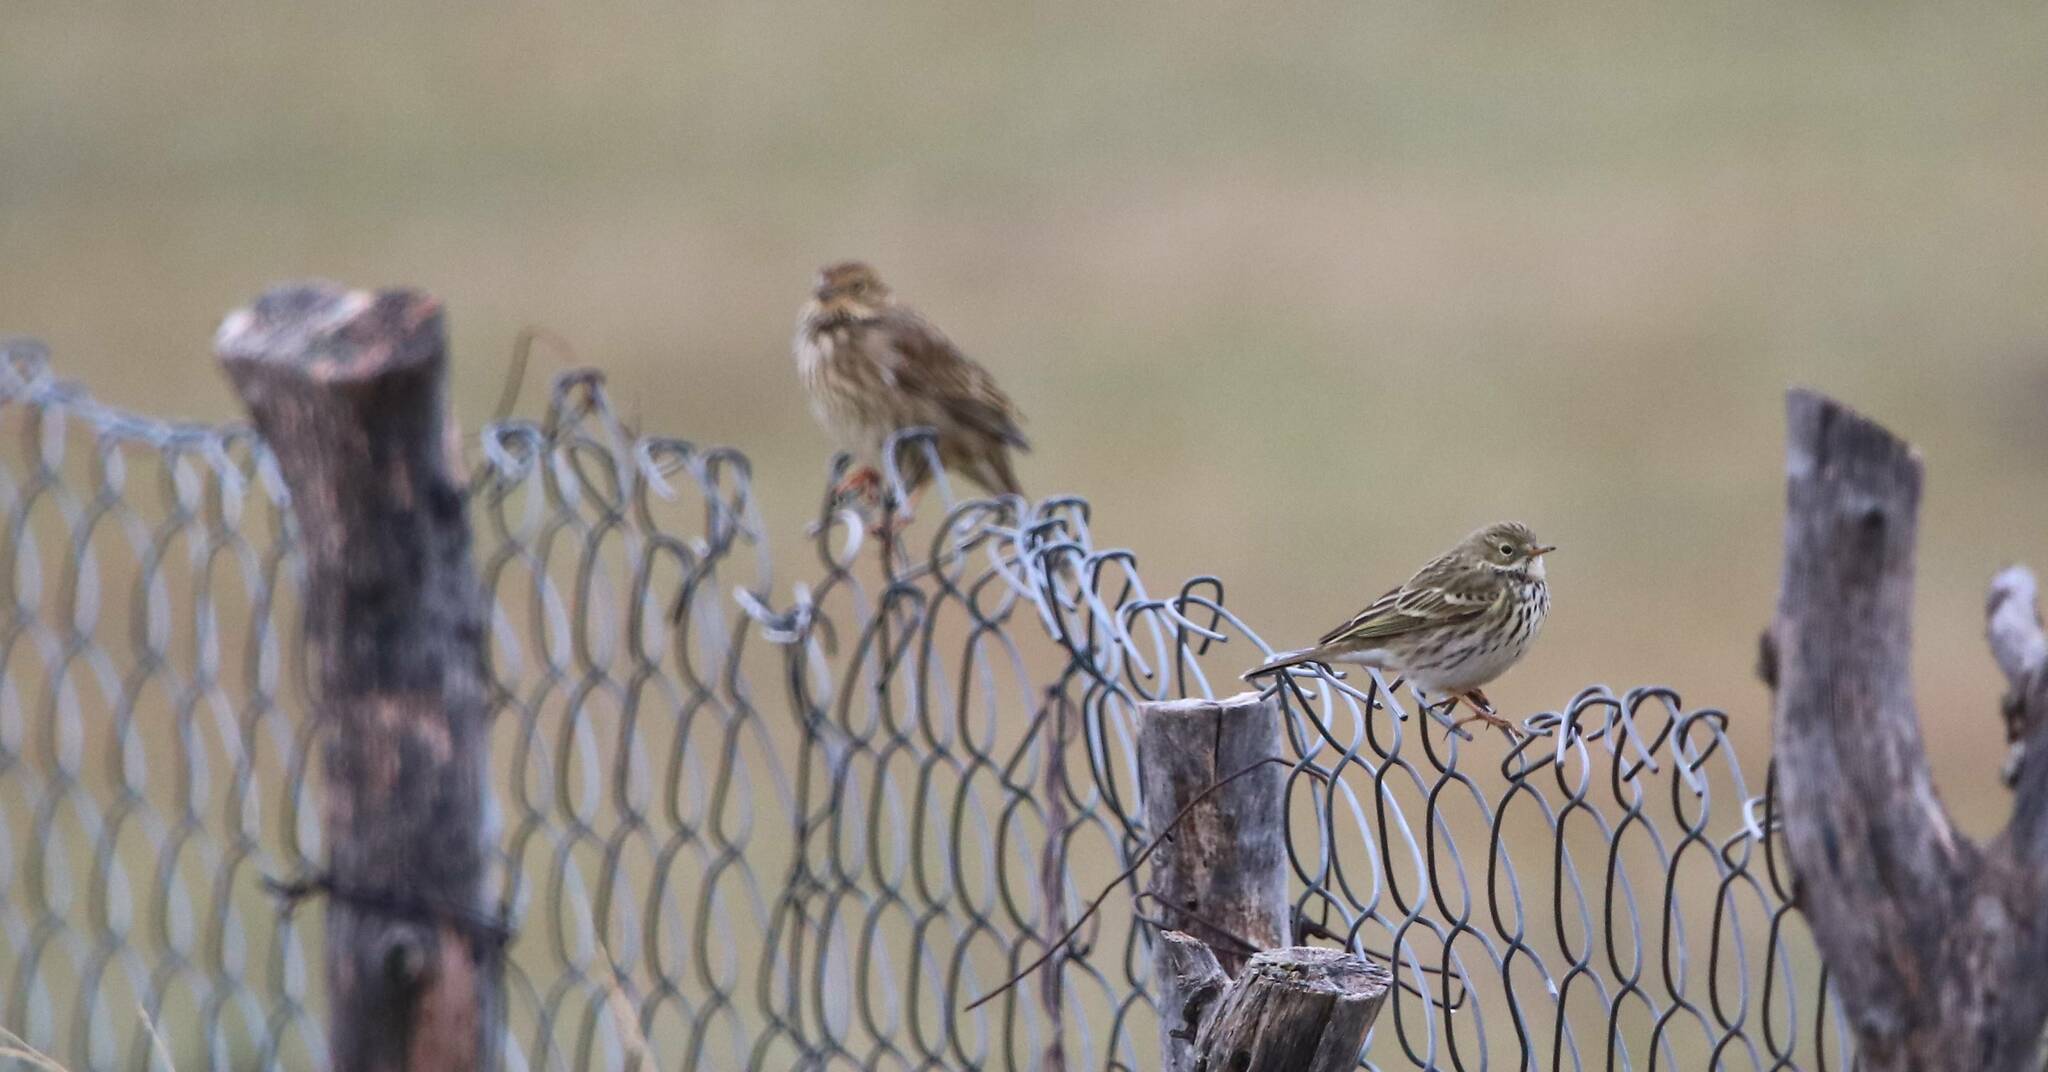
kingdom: Animalia
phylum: Chordata
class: Aves
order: Passeriformes
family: Motacillidae
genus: Anthus
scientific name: Anthus pratensis
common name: Meadow pipit
